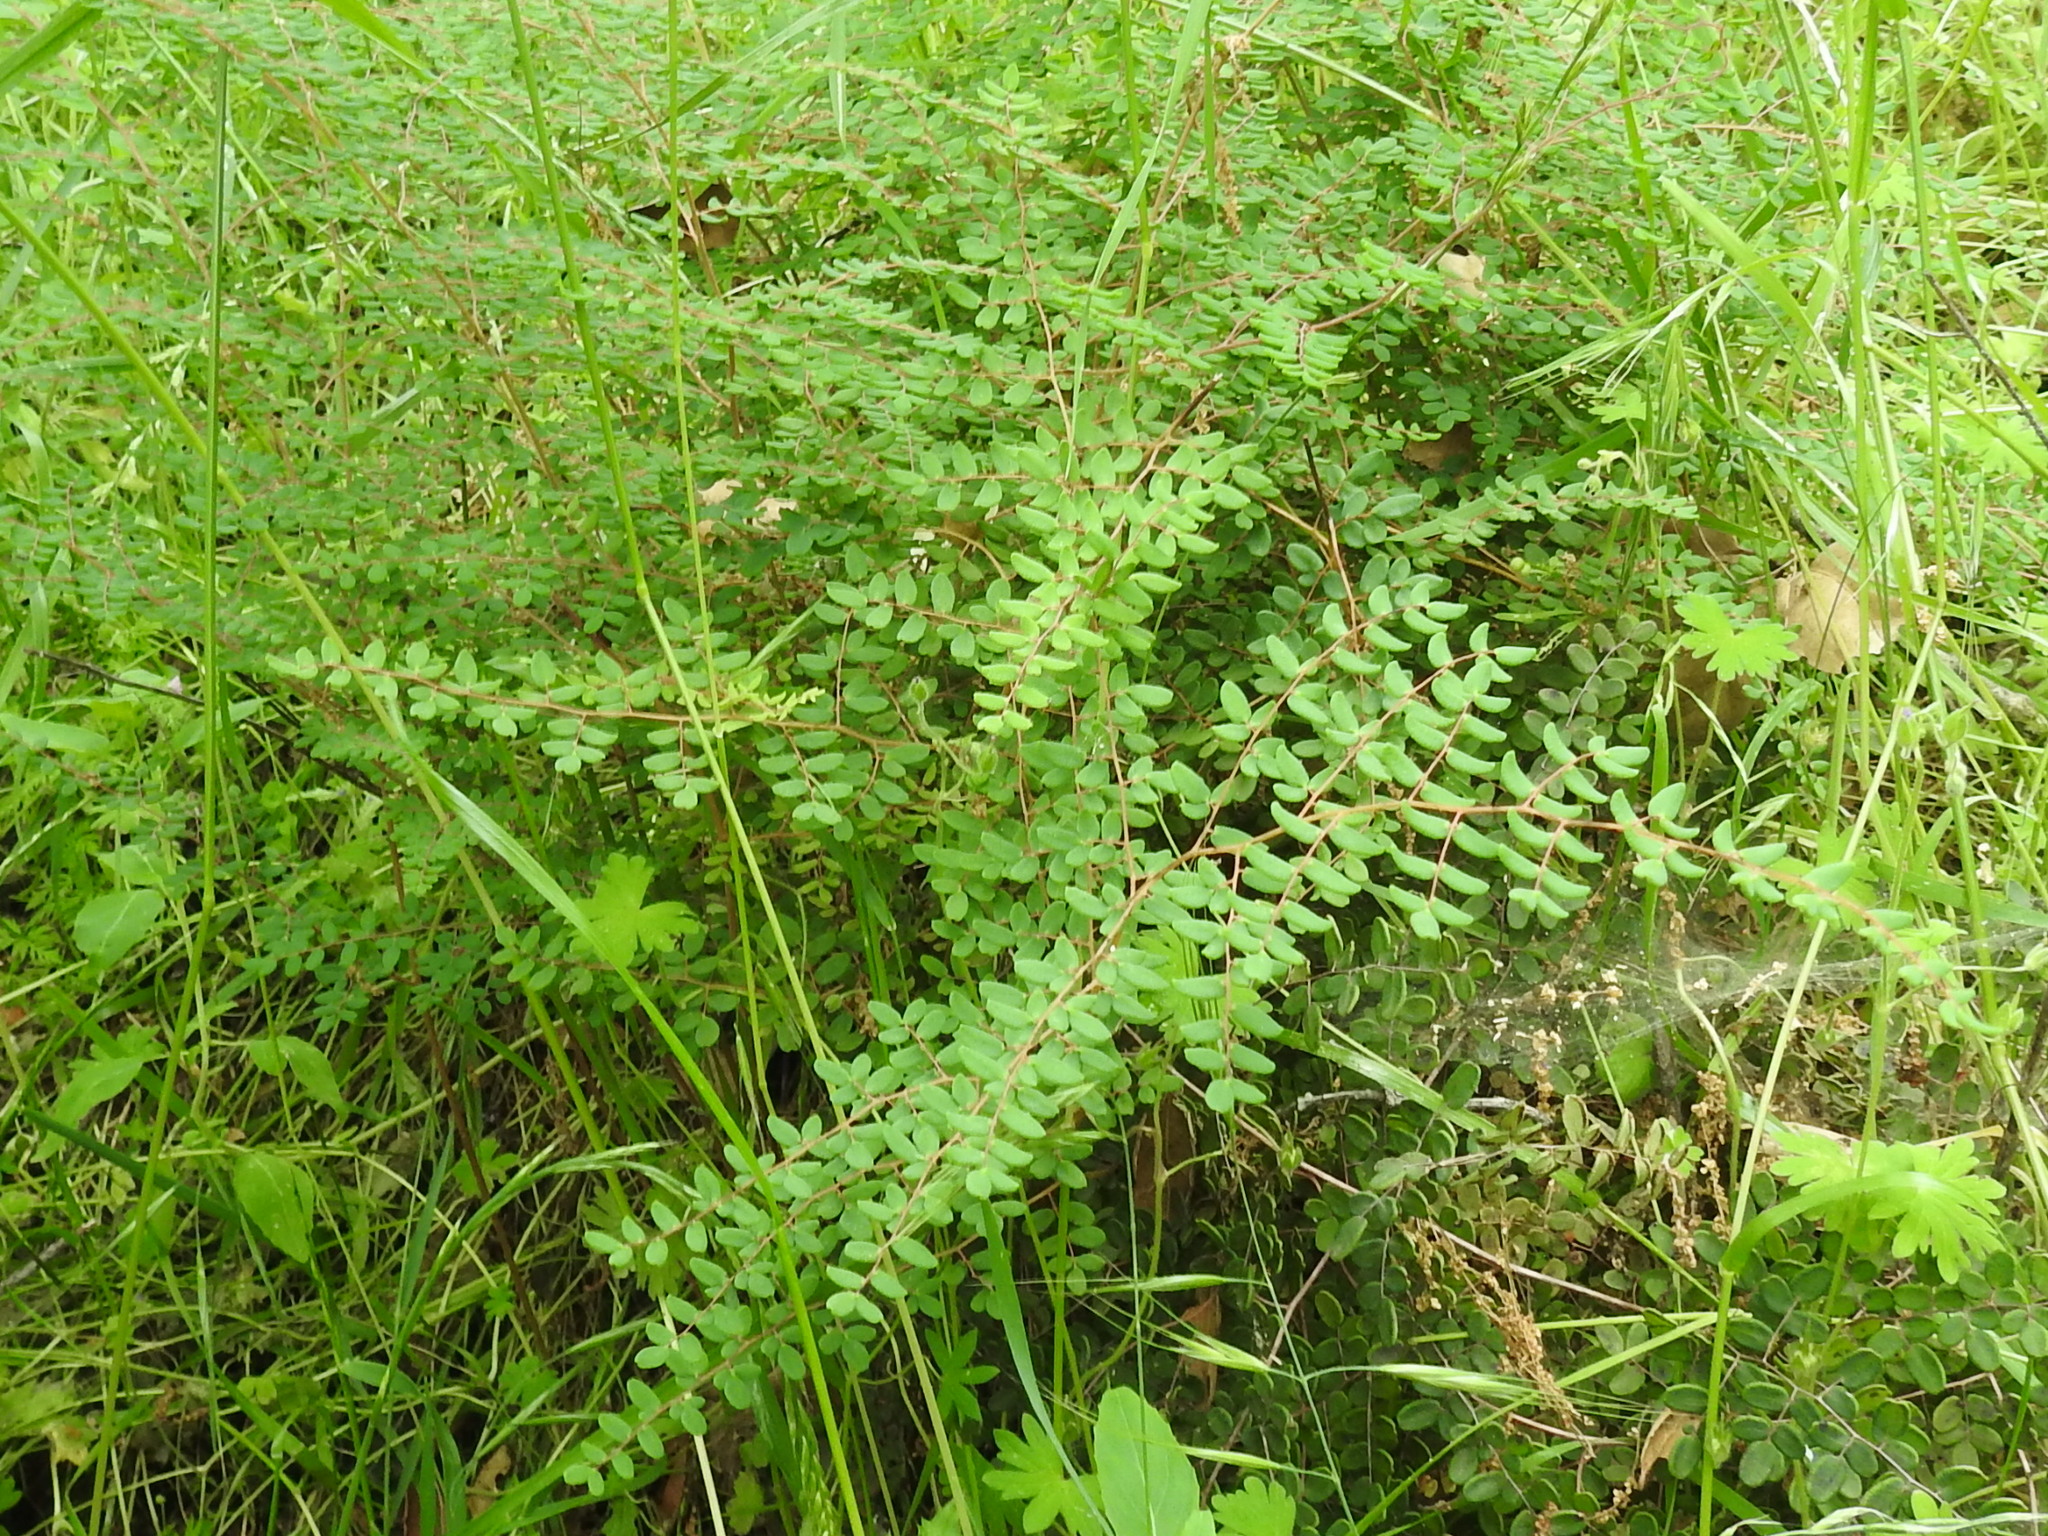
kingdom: Plantae
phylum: Tracheophyta
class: Polypodiopsida
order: Polypodiales
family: Pteridaceae
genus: Pellaea
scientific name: Pellaea andromedifolia
